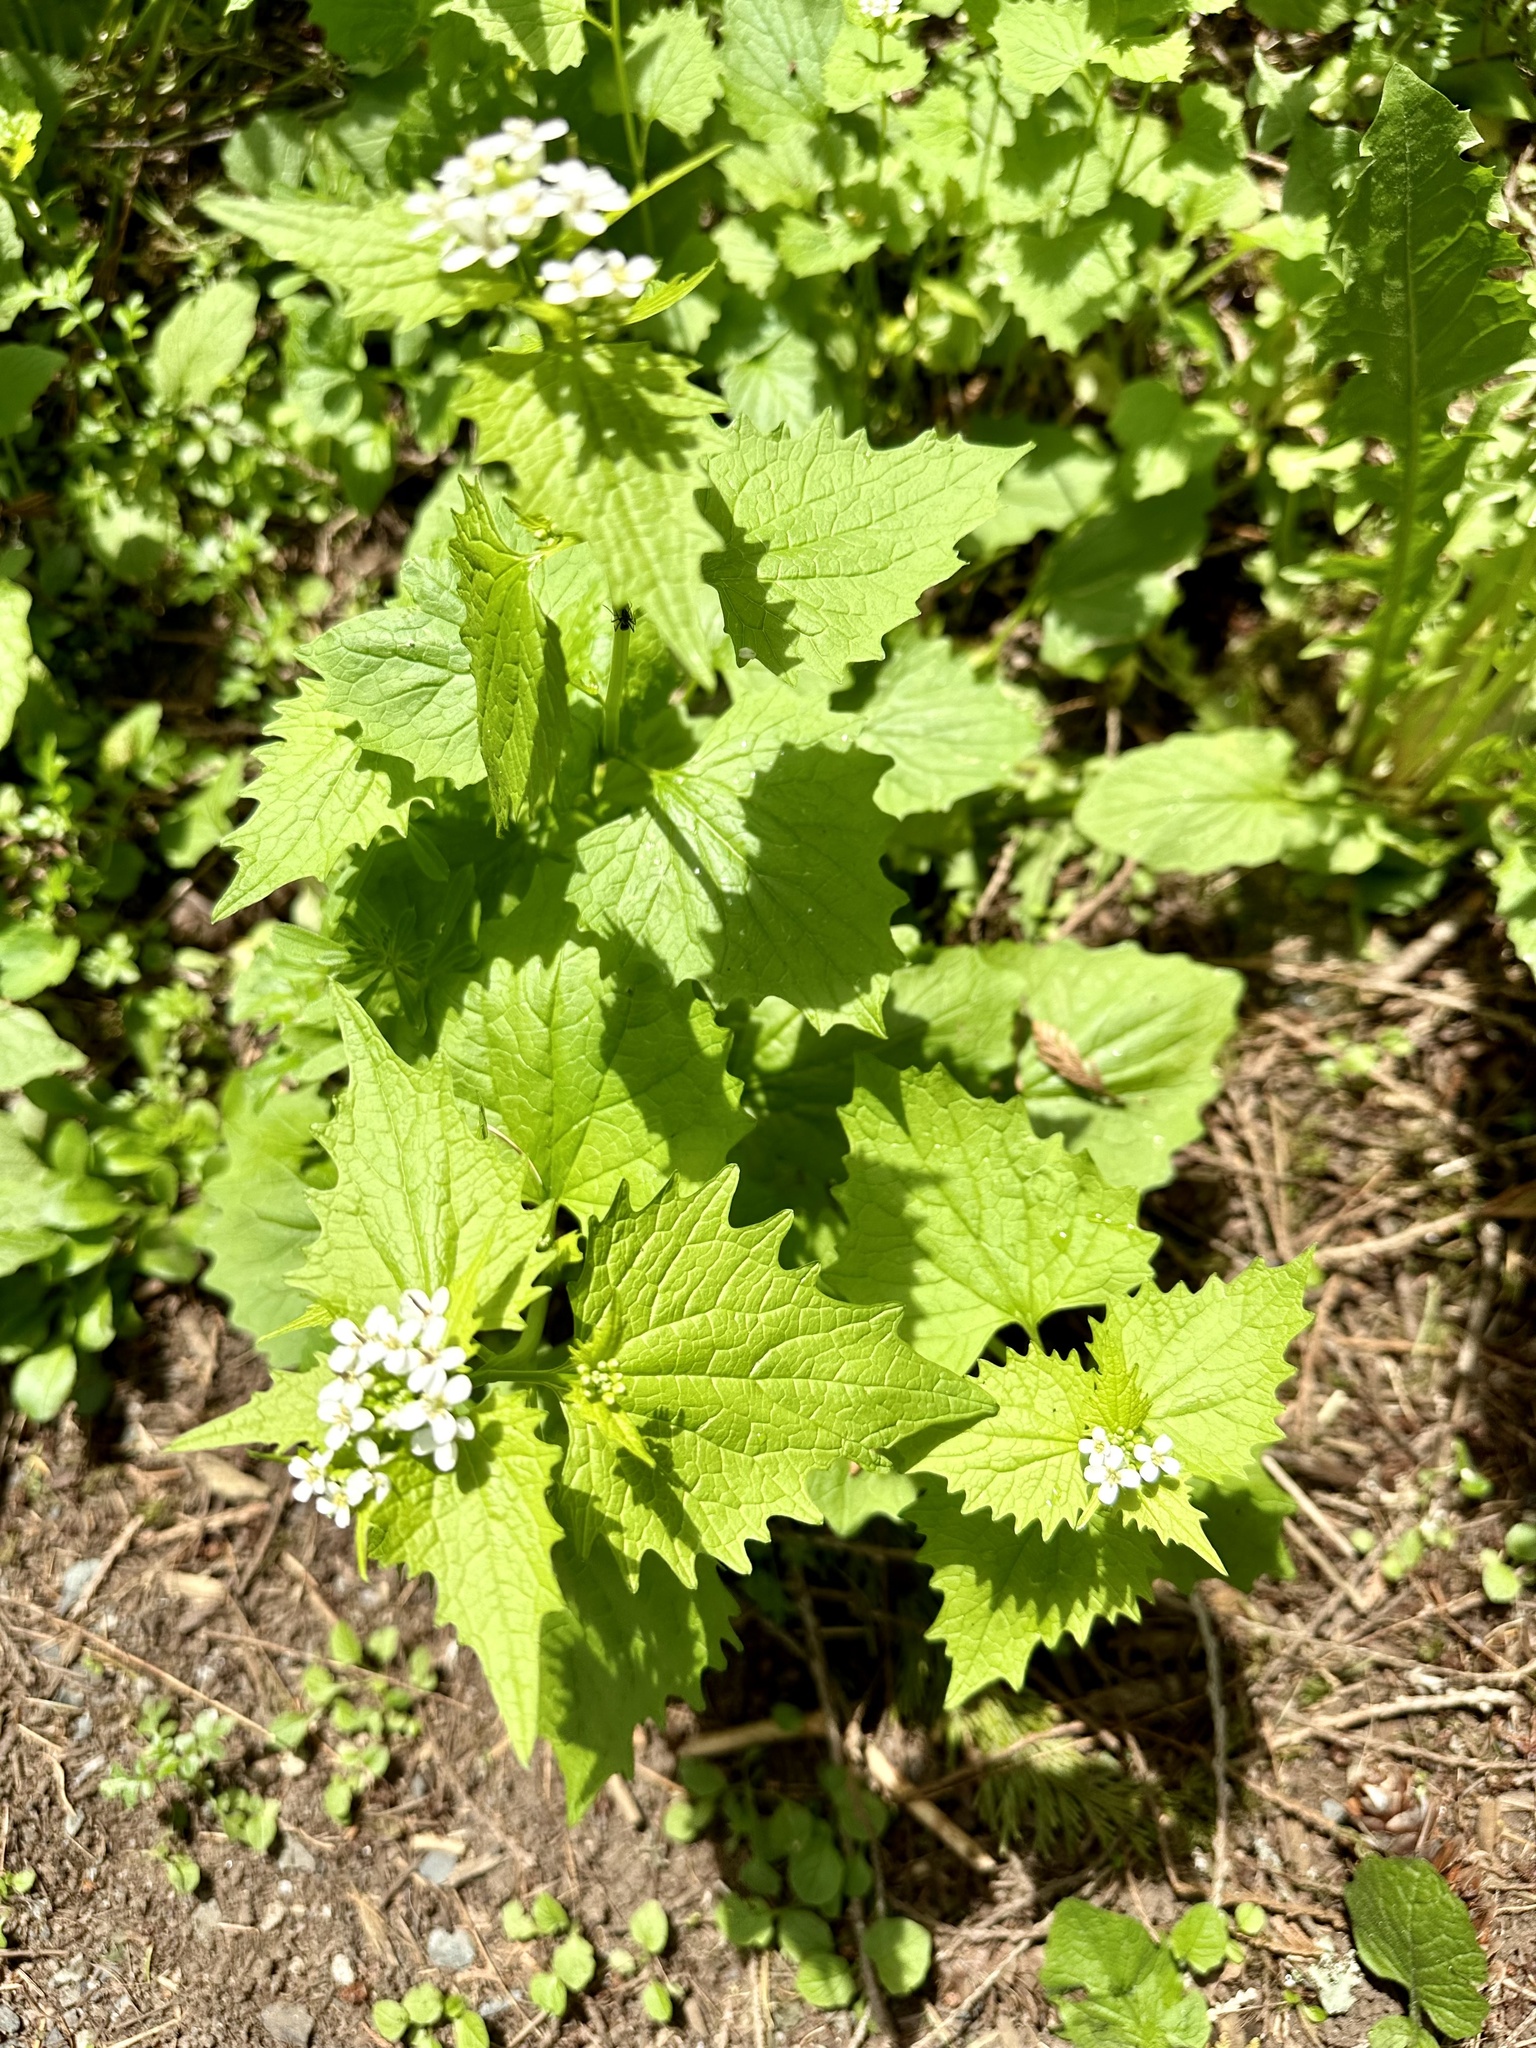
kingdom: Plantae
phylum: Tracheophyta
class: Magnoliopsida
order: Brassicales
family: Brassicaceae
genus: Alliaria
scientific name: Alliaria petiolata
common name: Garlic mustard
